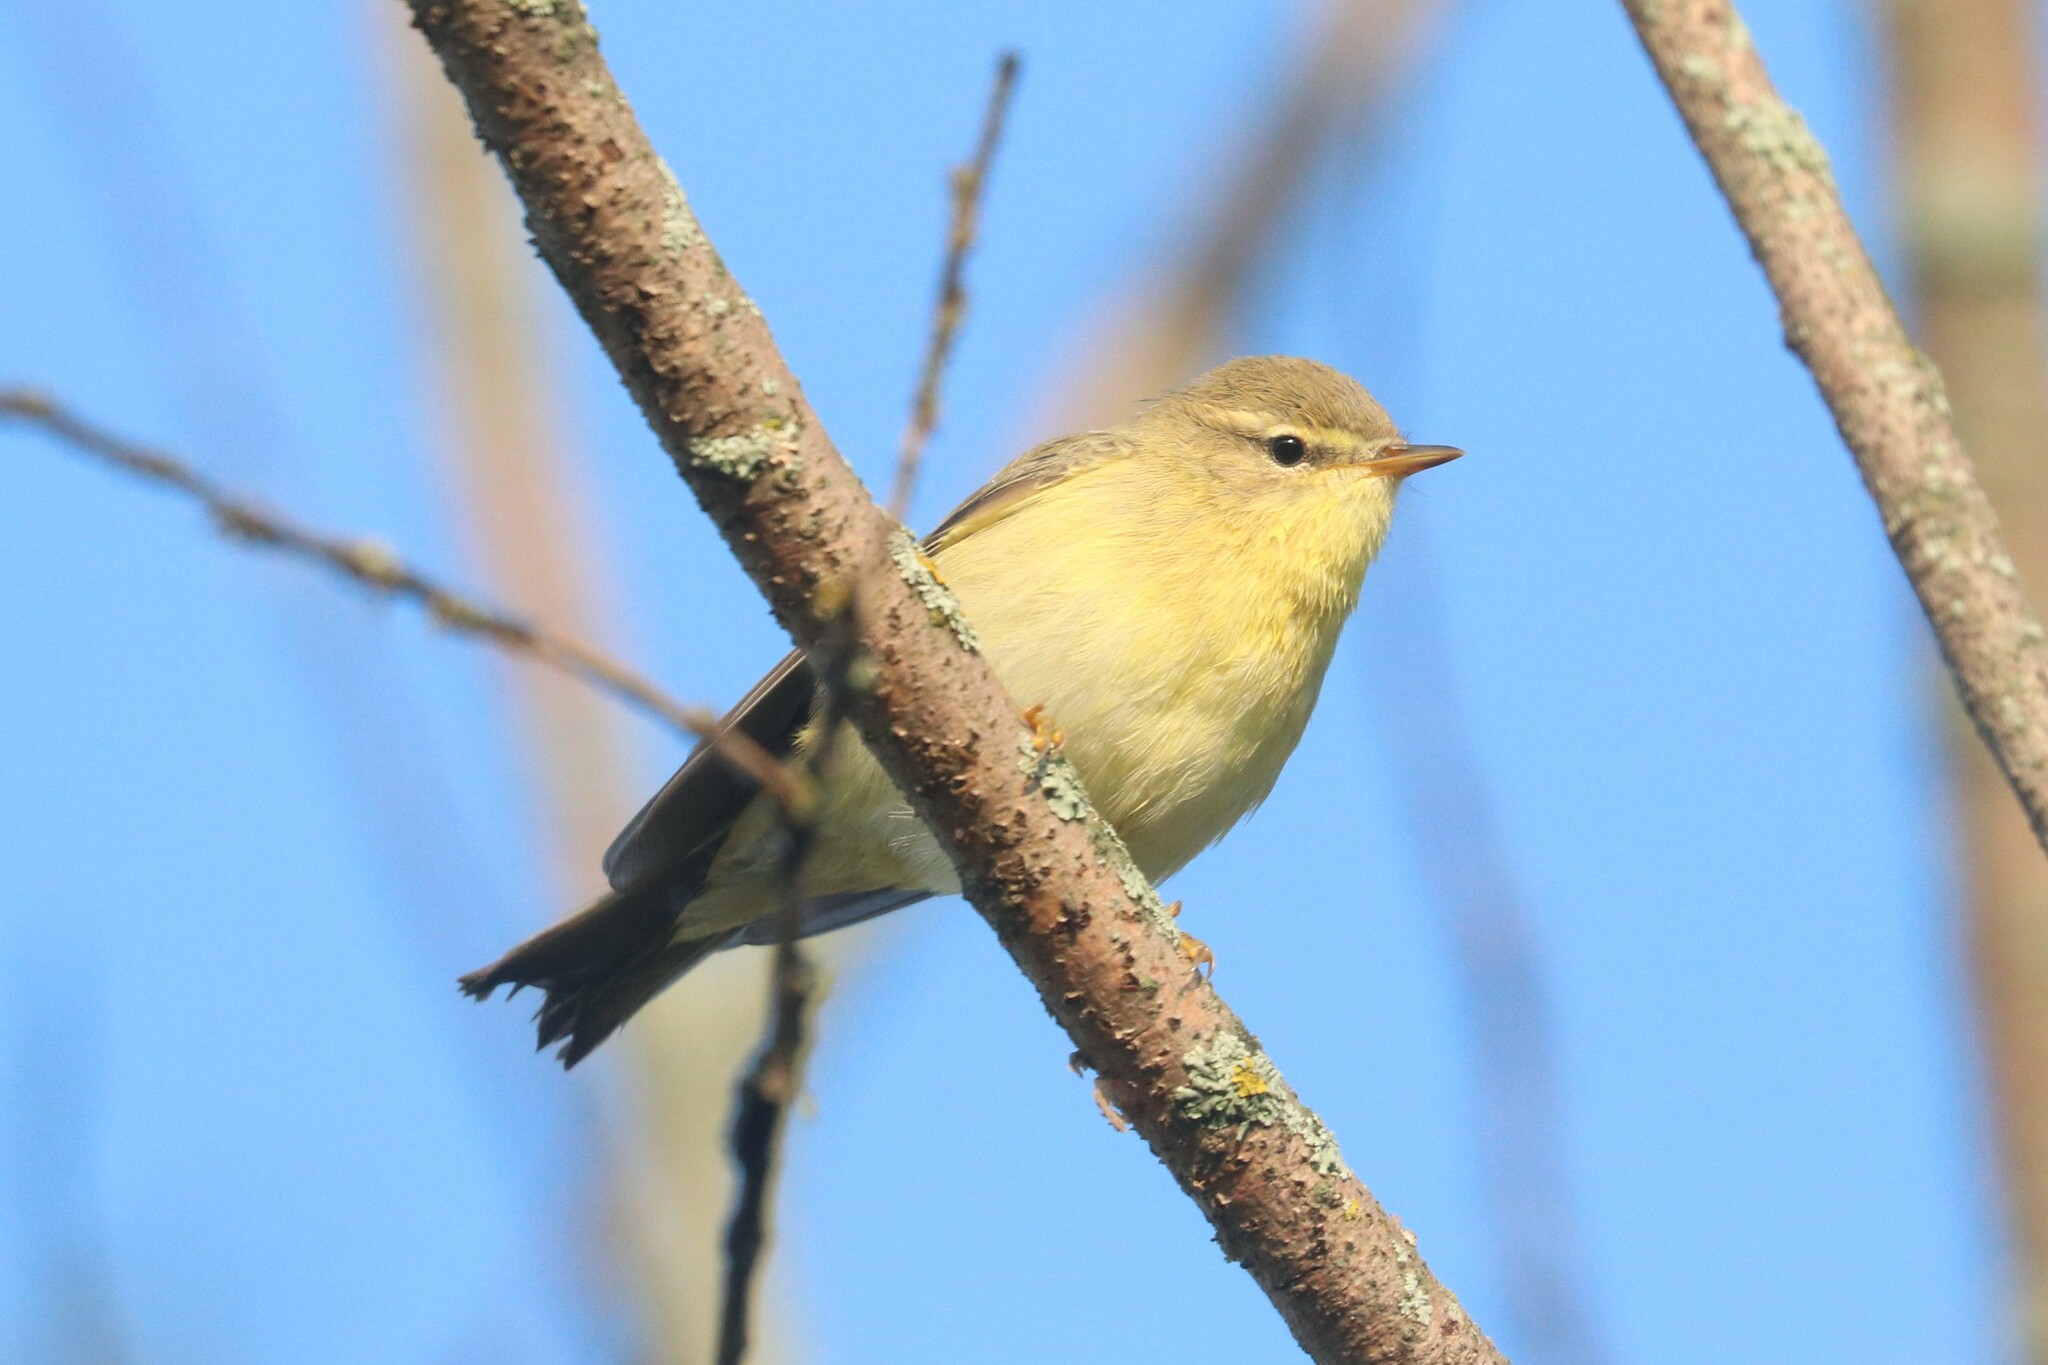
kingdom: Animalia
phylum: Chordata
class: Aves
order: Passeriformes
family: Phylloscopidae
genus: Phylloscopus
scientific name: Phylloscopus trochilus
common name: Willow warbler
